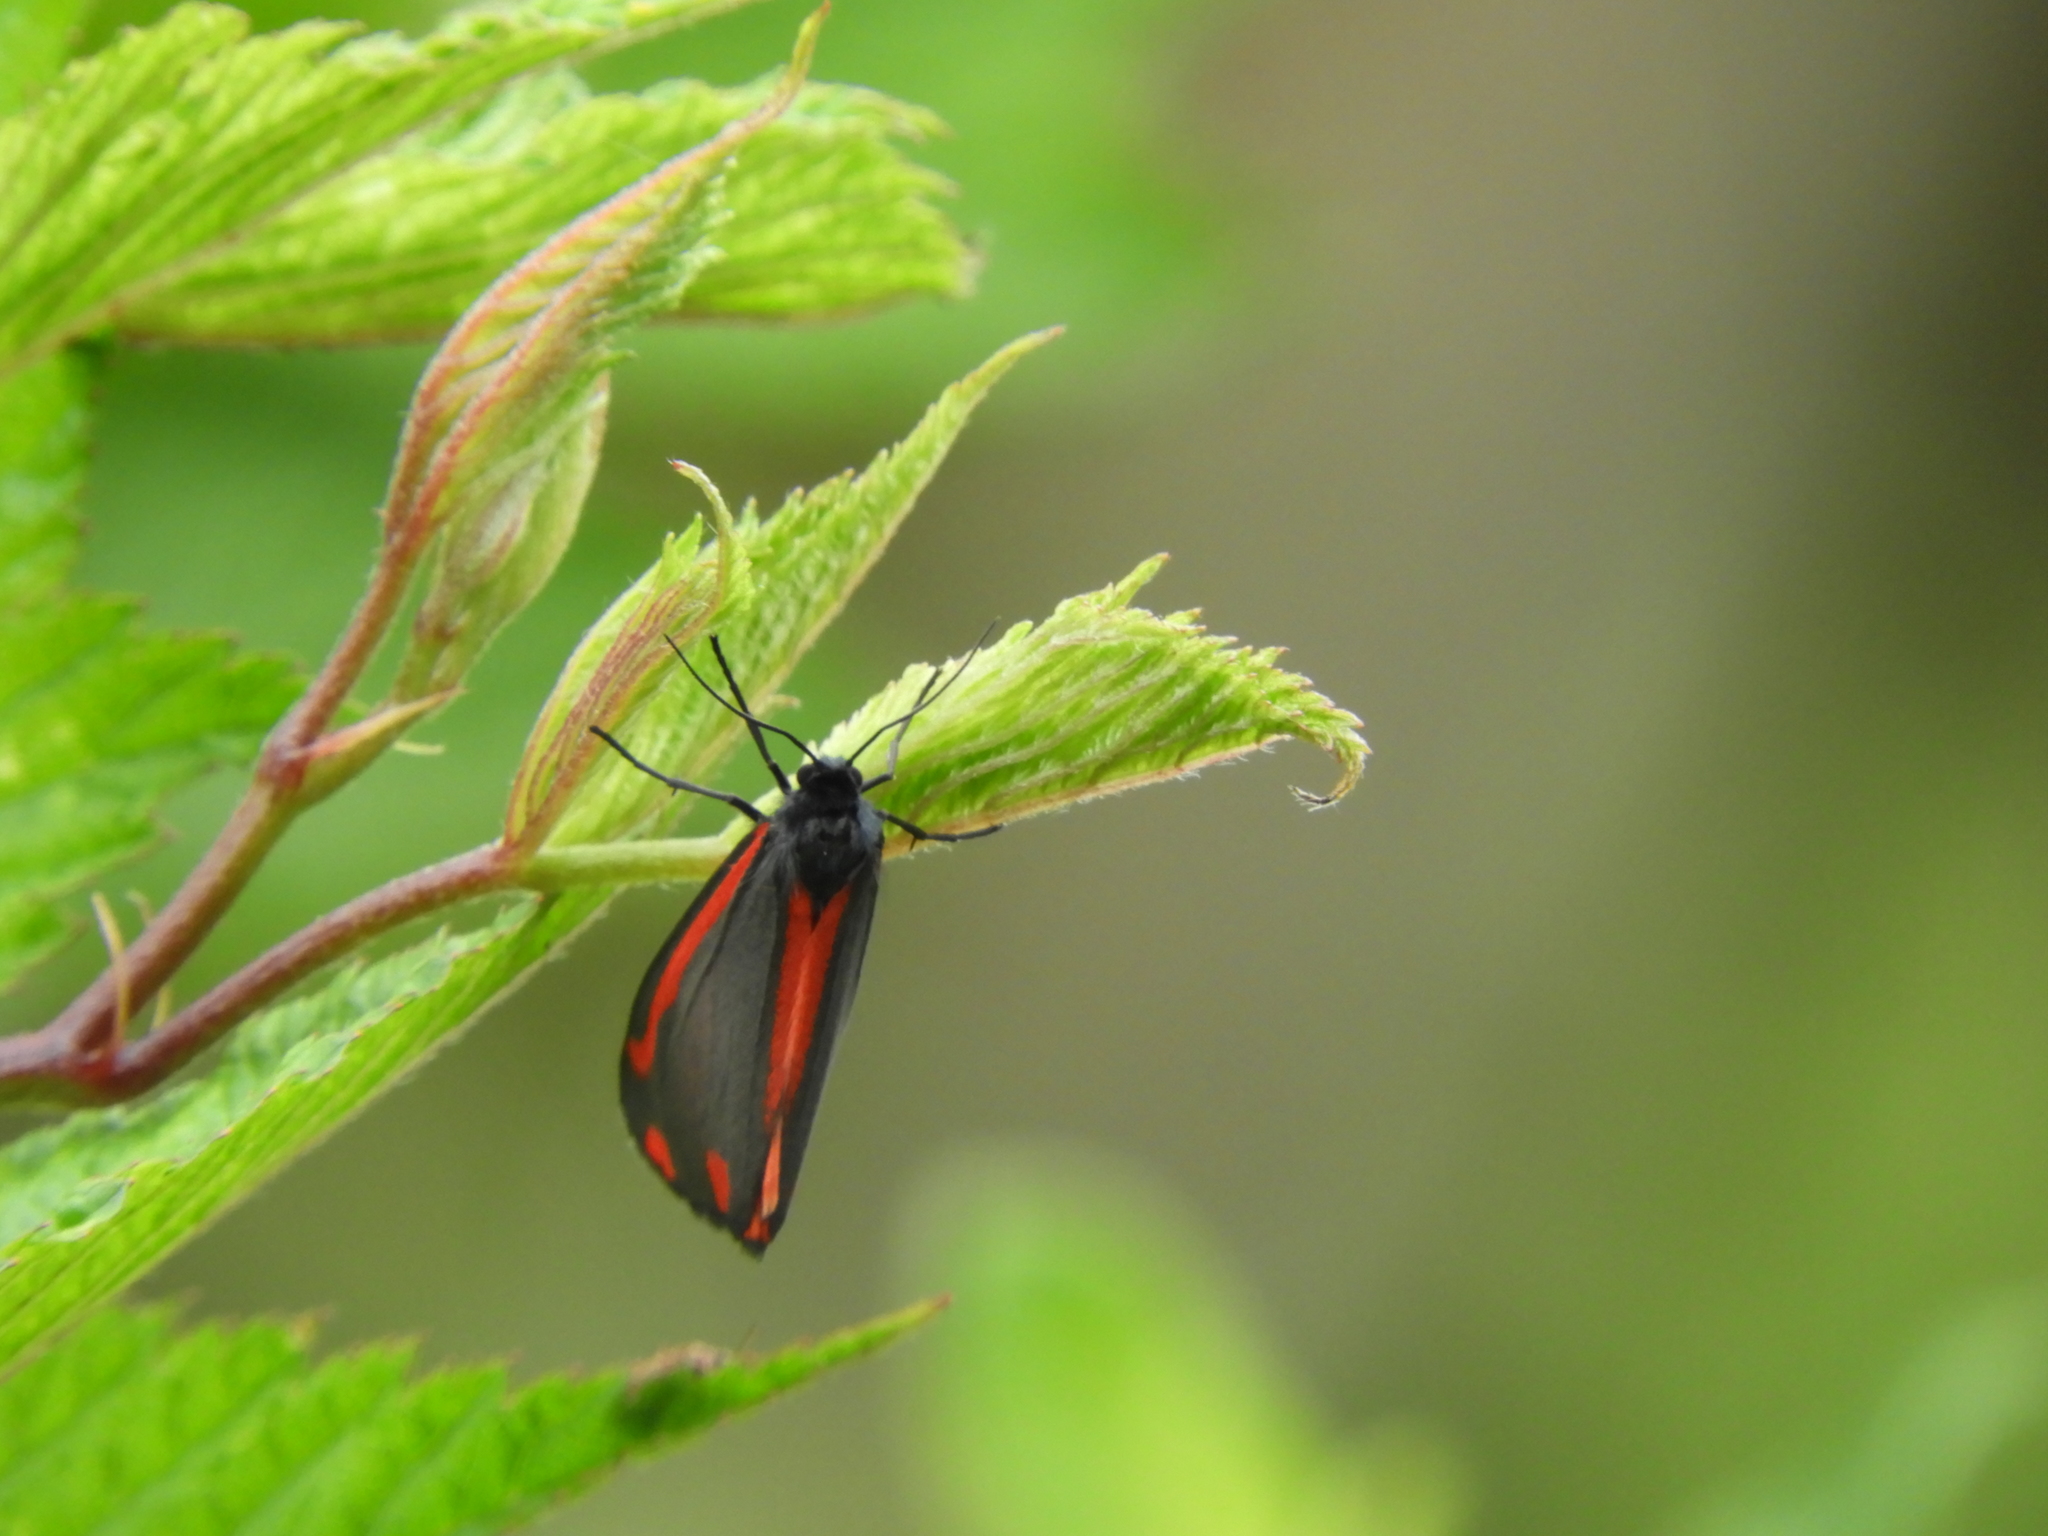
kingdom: Animalia
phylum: Arthropoda
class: Insecta
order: Lepidoptera
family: Erebidae
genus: Tyria
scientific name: Tyria jacobaeae
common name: Cinnabar
